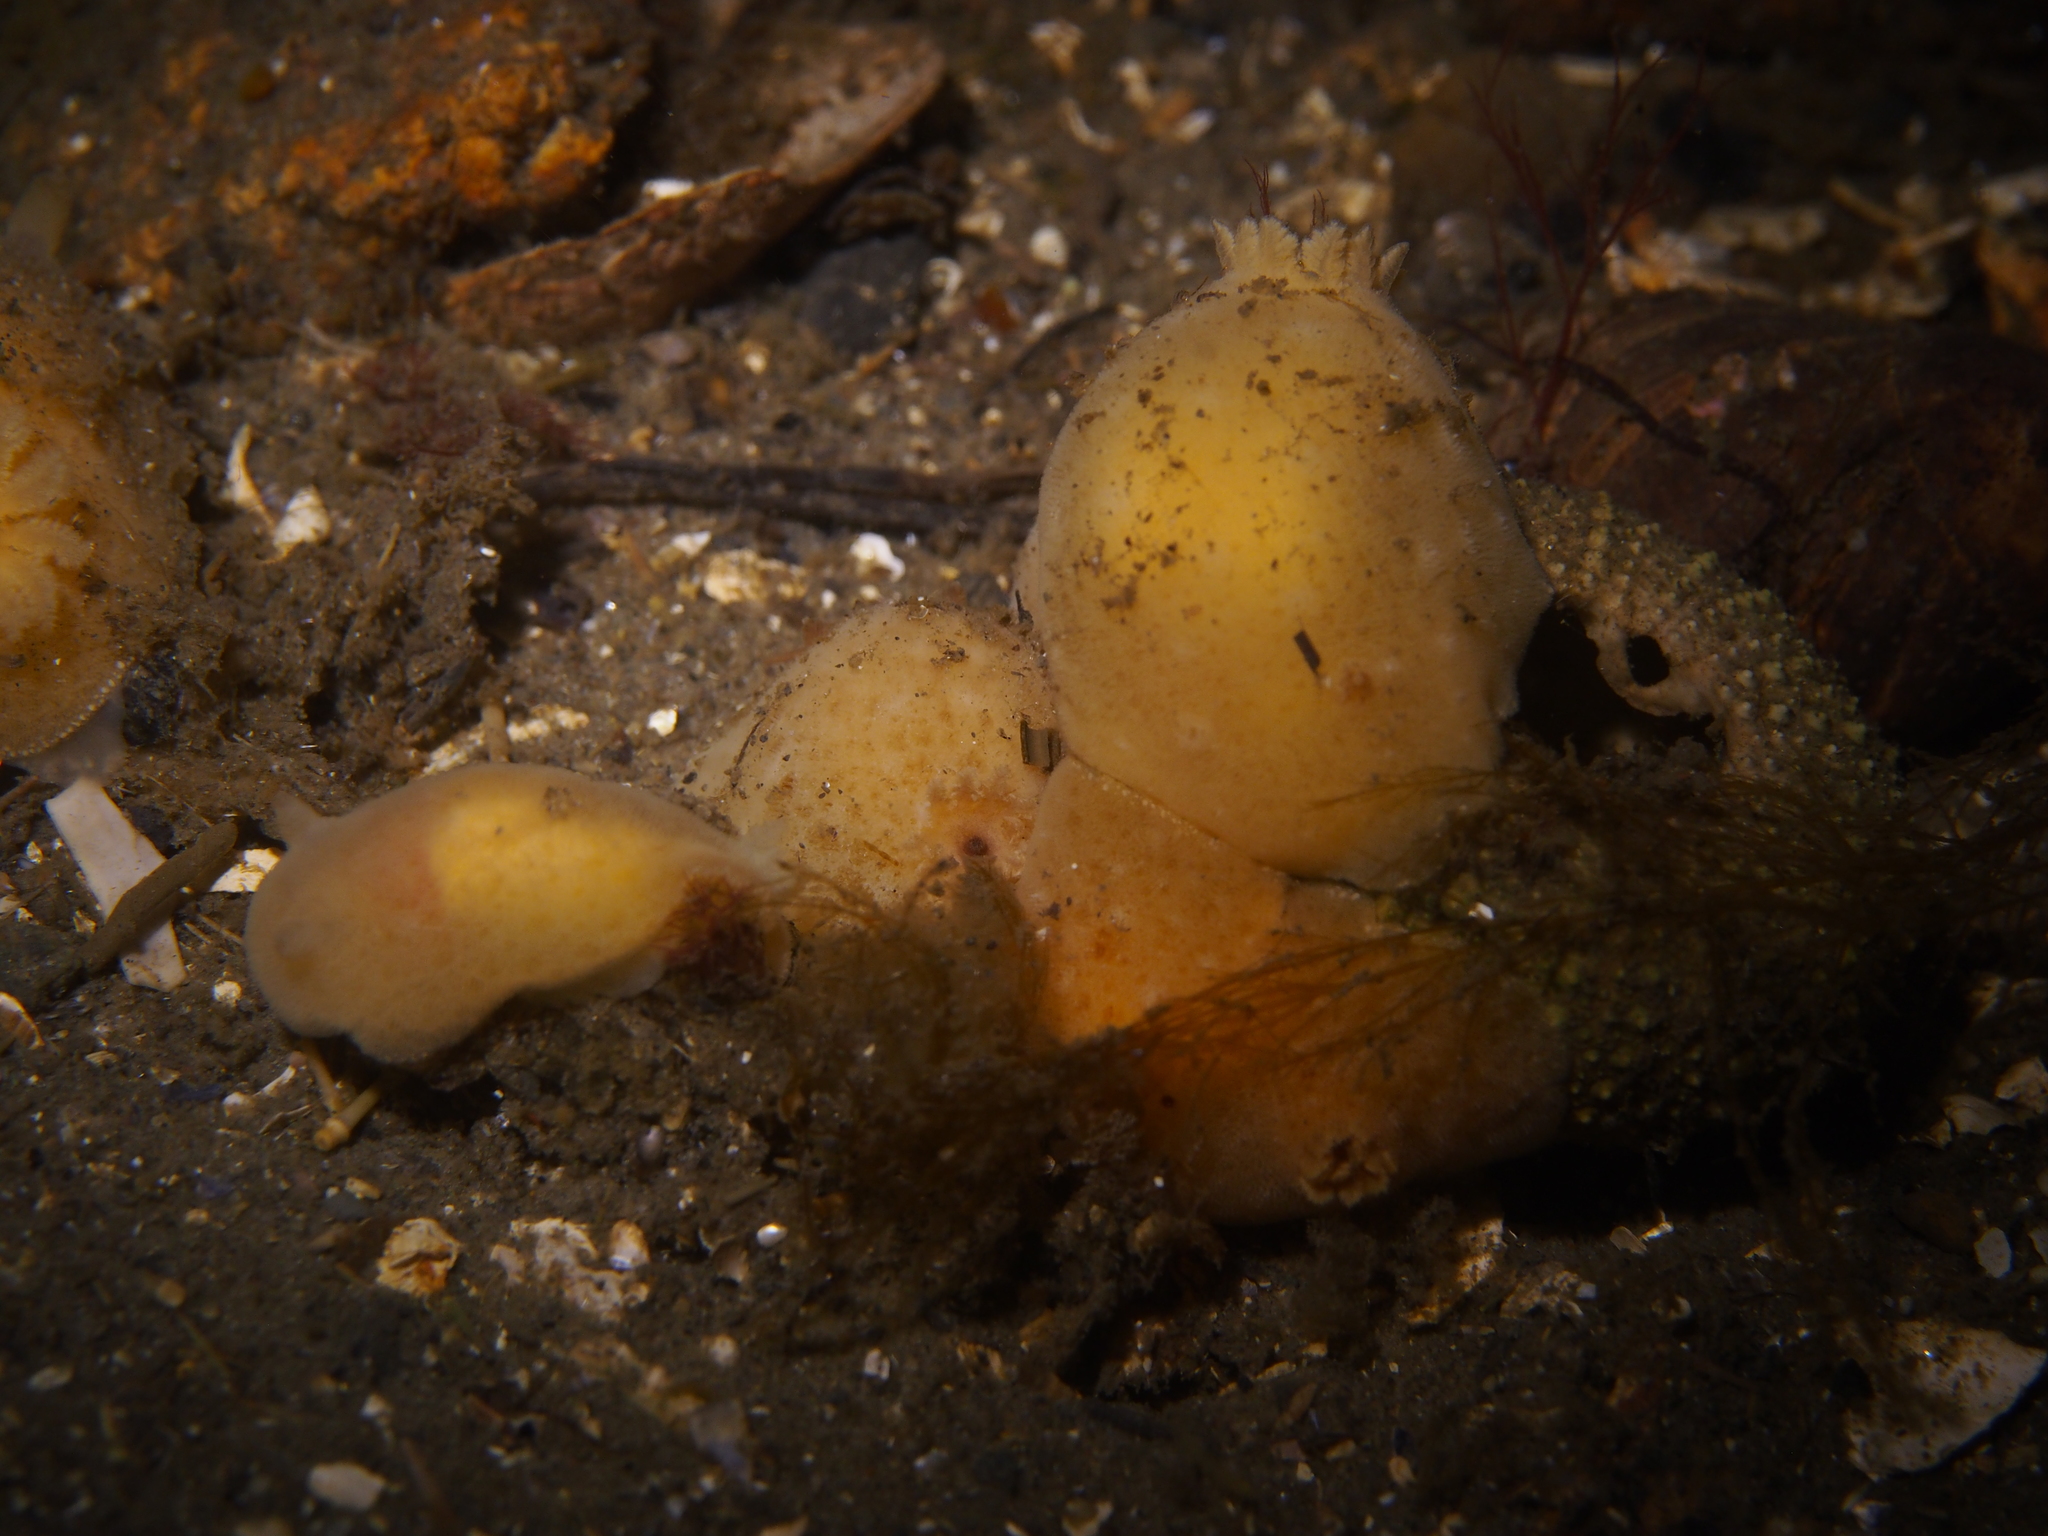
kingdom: Animalia
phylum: Mollusca
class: Gastropoda
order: Nudibranchia
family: Discodorididae
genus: Jorunna
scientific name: Jorunna tomentosa
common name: Grey sea slug
